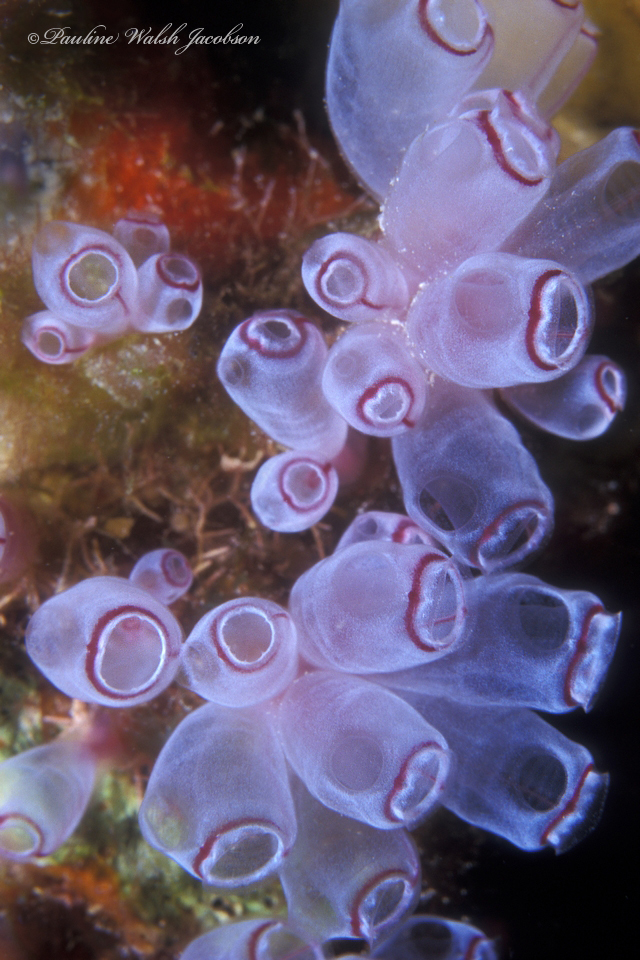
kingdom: Animalia
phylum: Chordata
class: Ascidiacea
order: Aplousobranchia
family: Clavelinidae
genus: Clavelina
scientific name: Clavelina picta
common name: Painted tunicate
